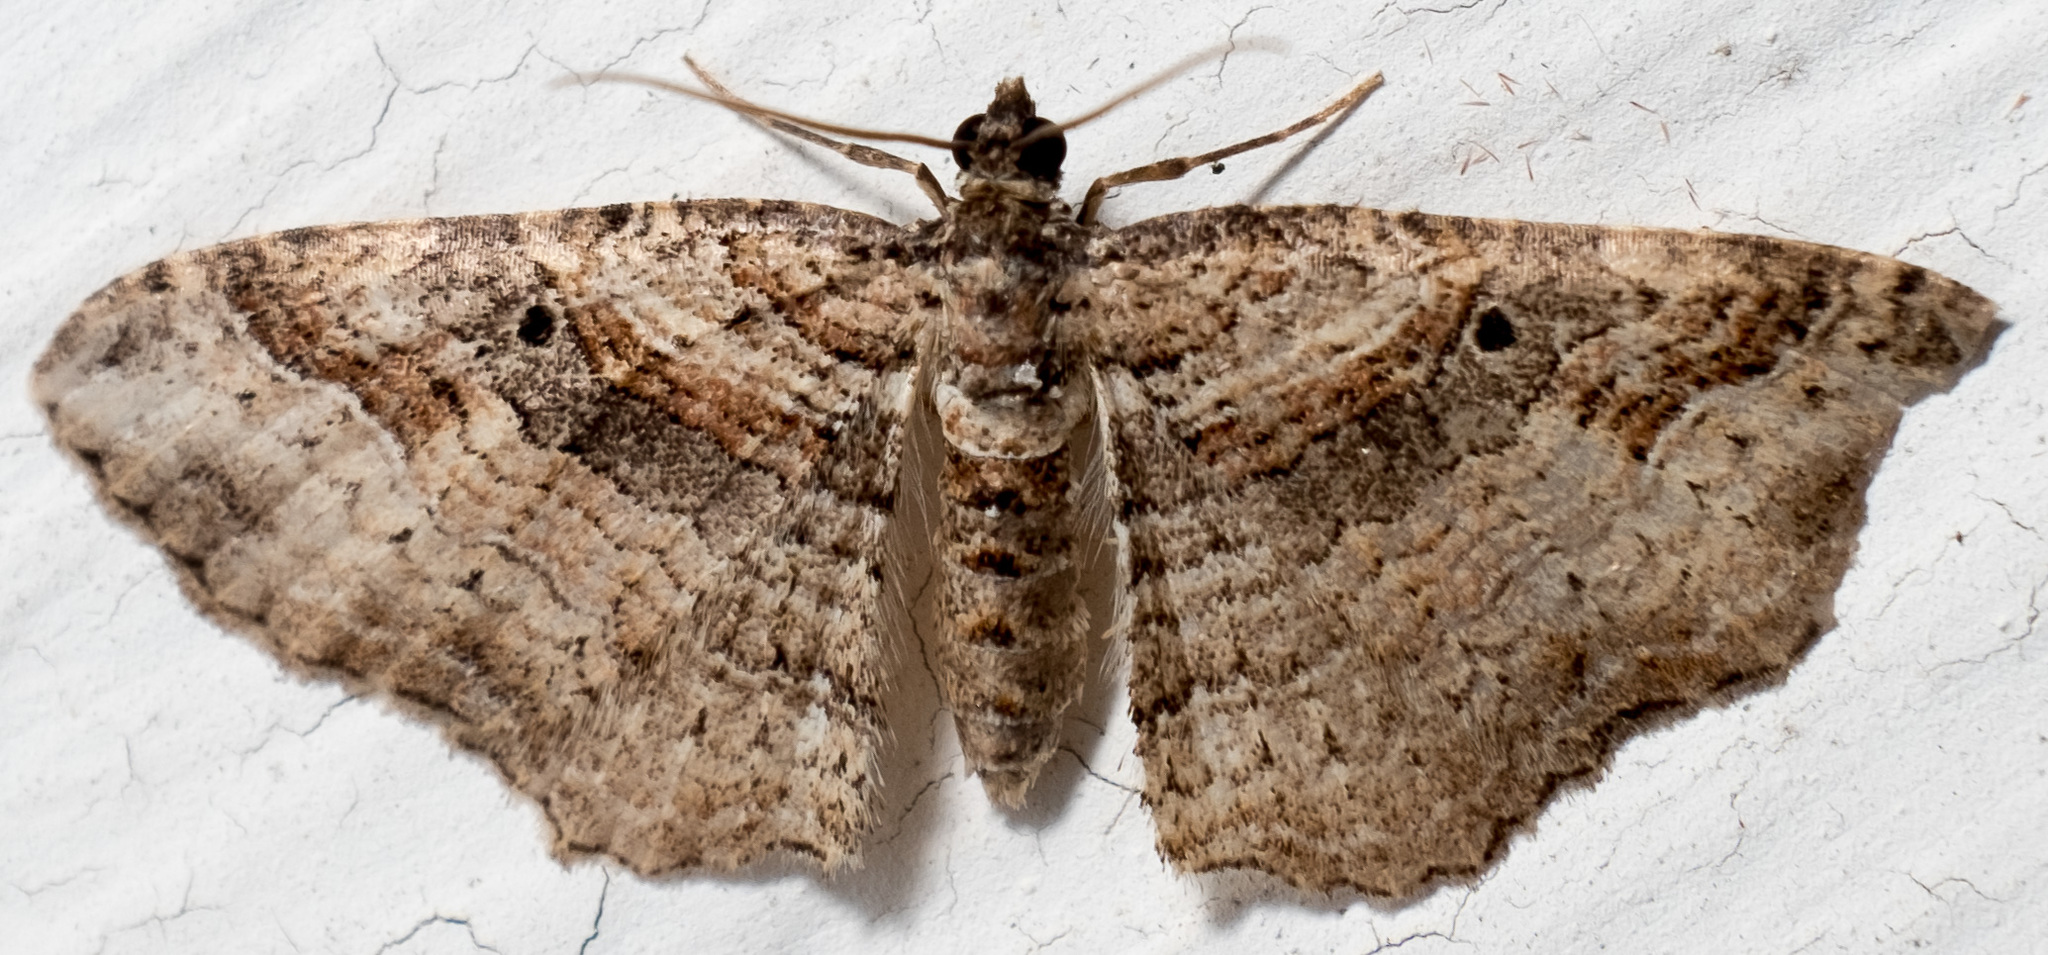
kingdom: Animalia
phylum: Arthropoda
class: Insecta
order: Lepidoptera
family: Geometridae
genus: Costaconvexa
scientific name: Costaconvexa centrostrigaria
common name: Bent-line carpet
